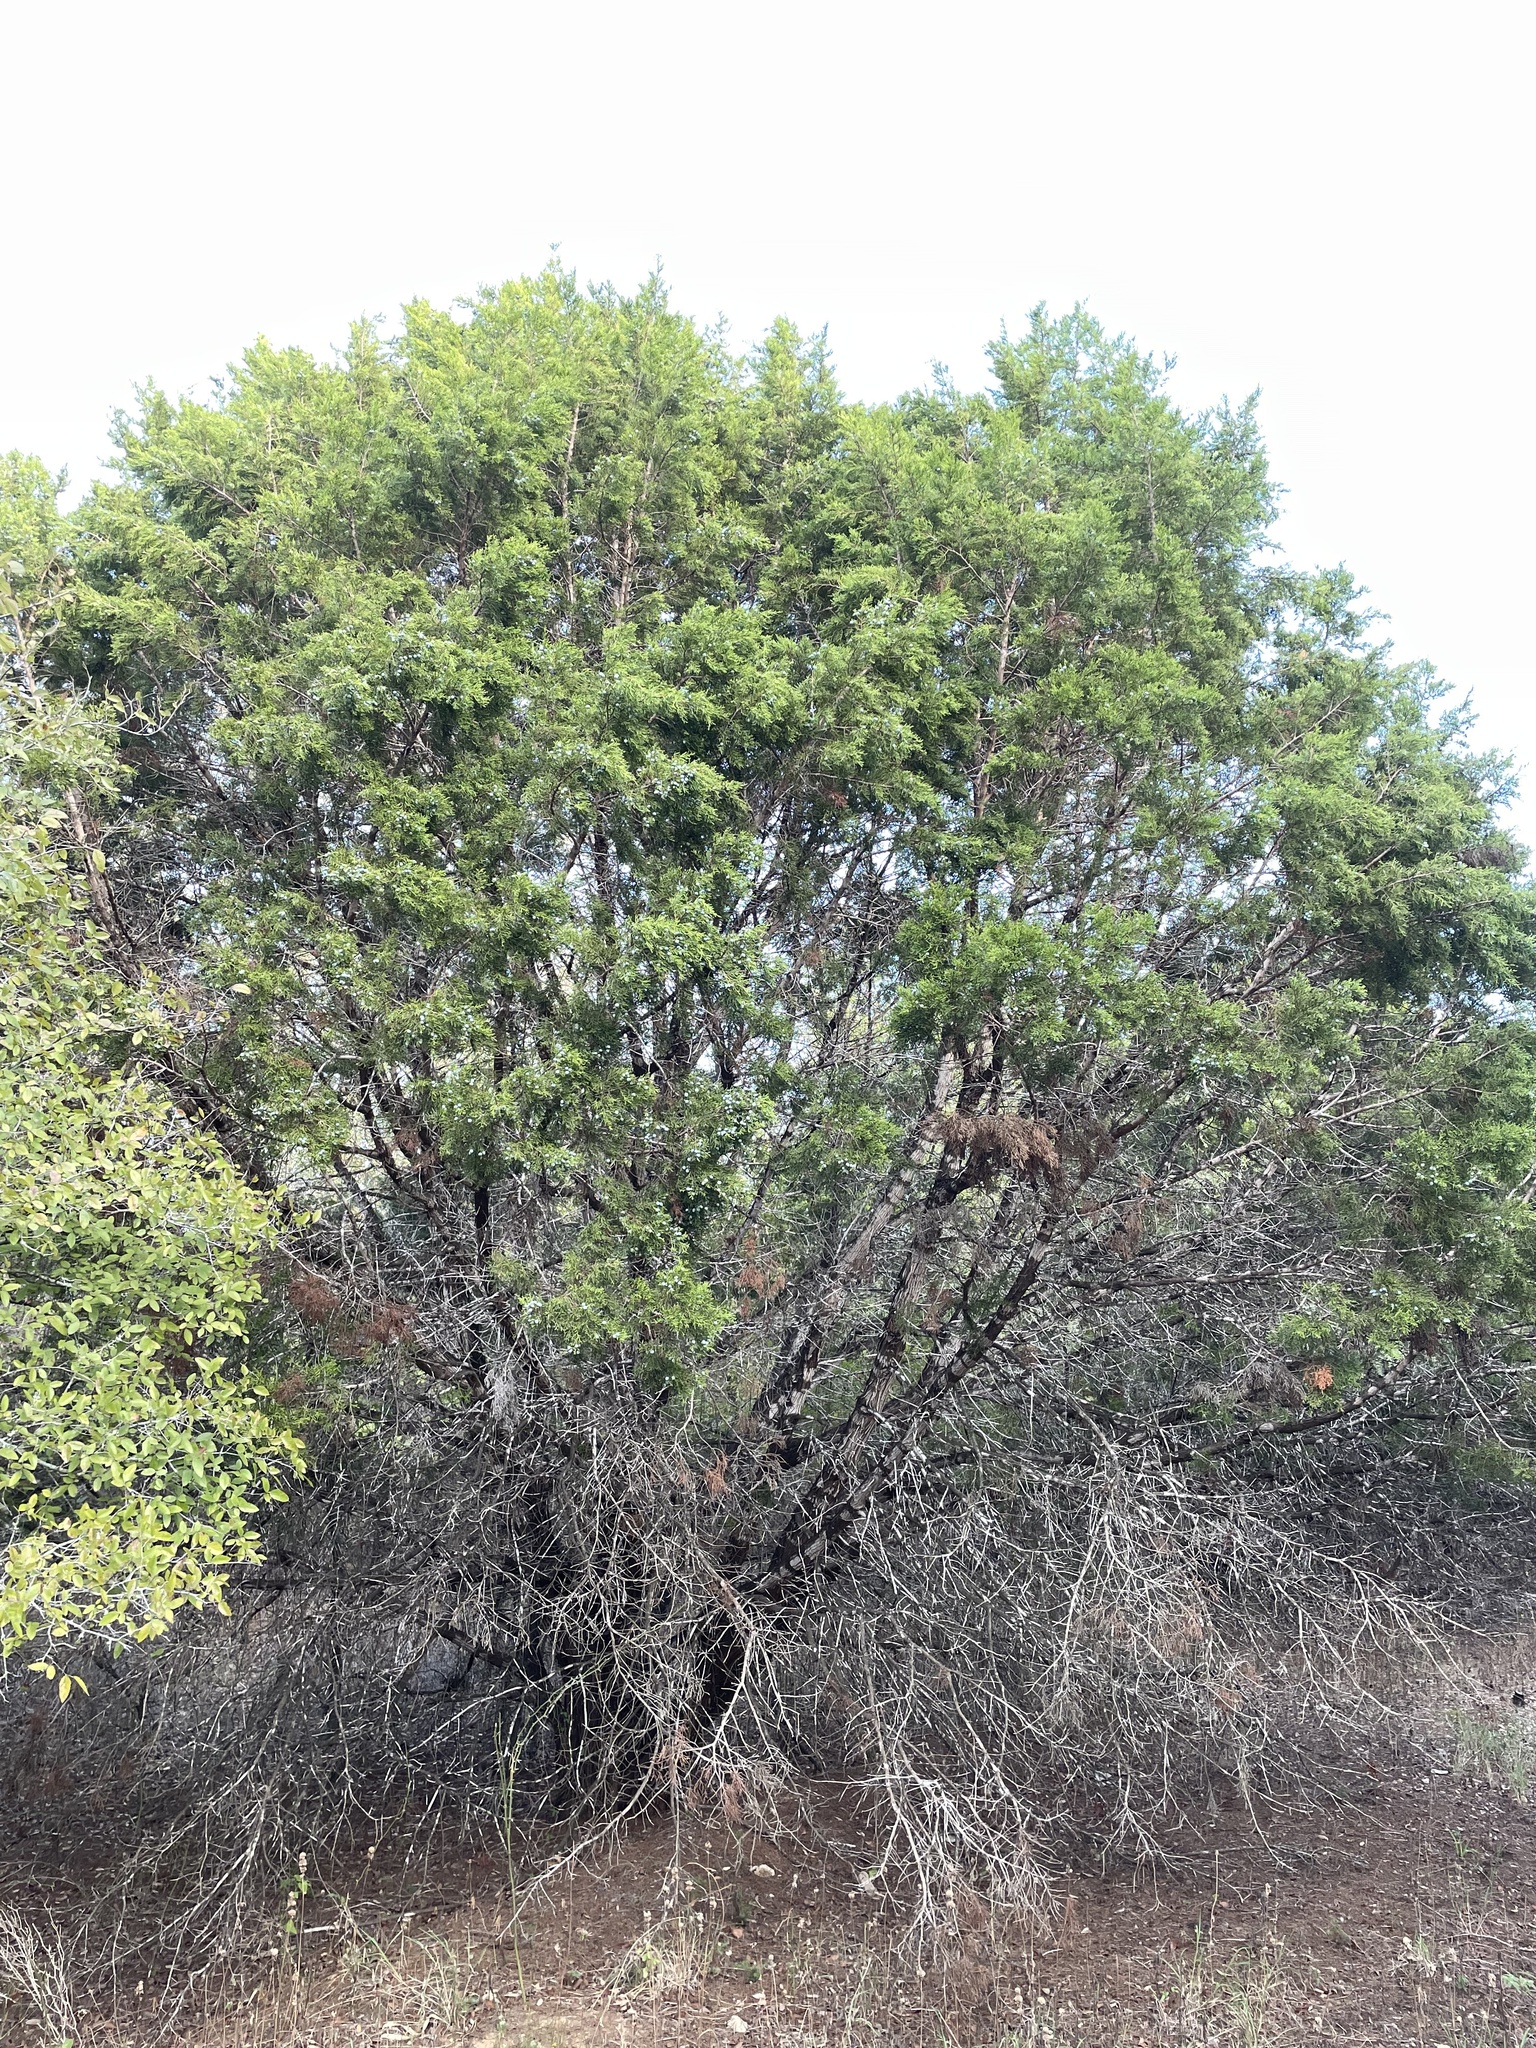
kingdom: Plantae
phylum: Tracheophyta
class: Pinopsida
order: Pinales
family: Cupressaceae
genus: Juniperus
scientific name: Juniperus ashei
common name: Mexican juniper
